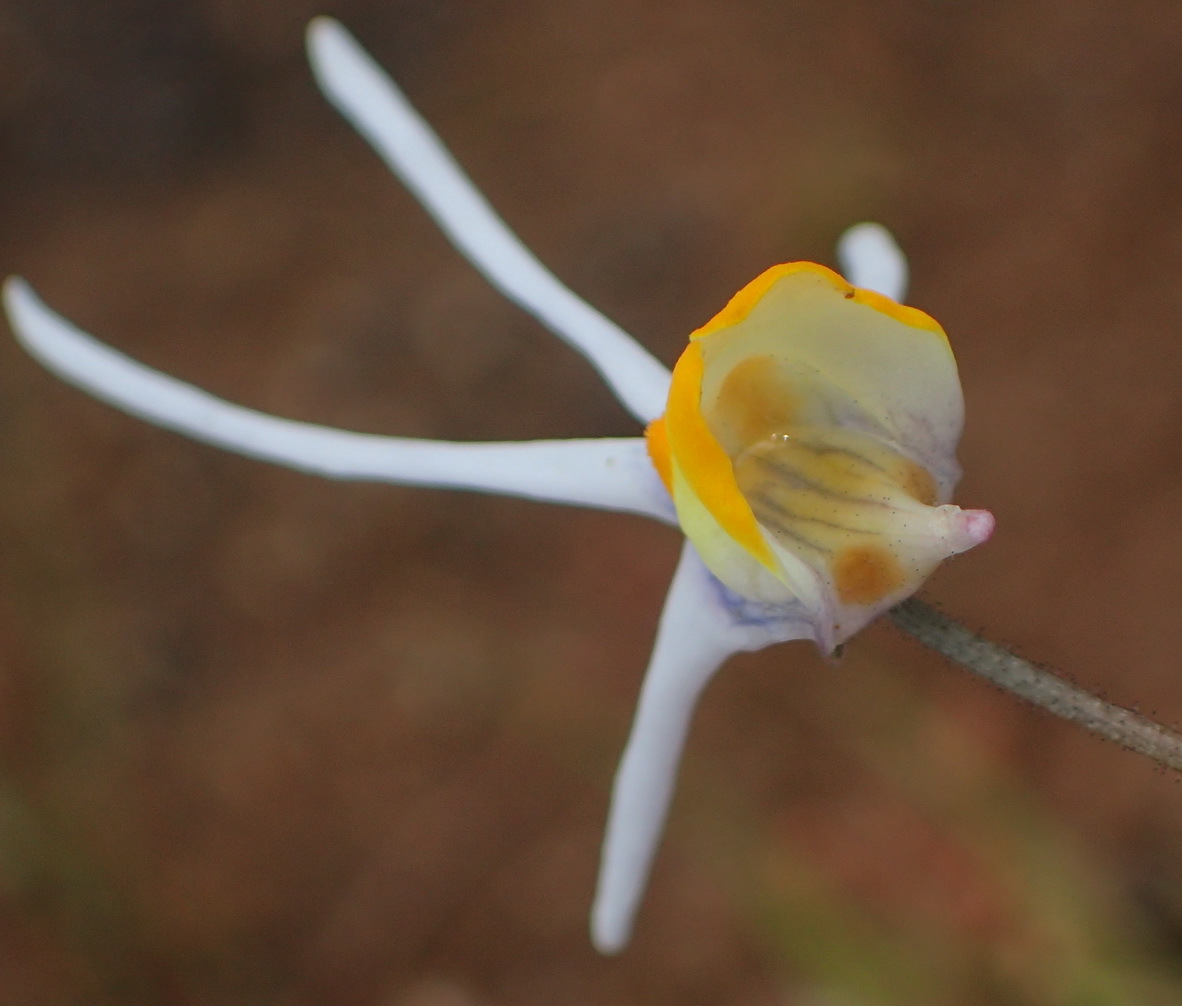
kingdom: Plantae
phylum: Tracheophyta
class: Magnoliopsida
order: Lamiales
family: Scrophulariaceae
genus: Nemesia
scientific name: Nemesia cheiranthus
